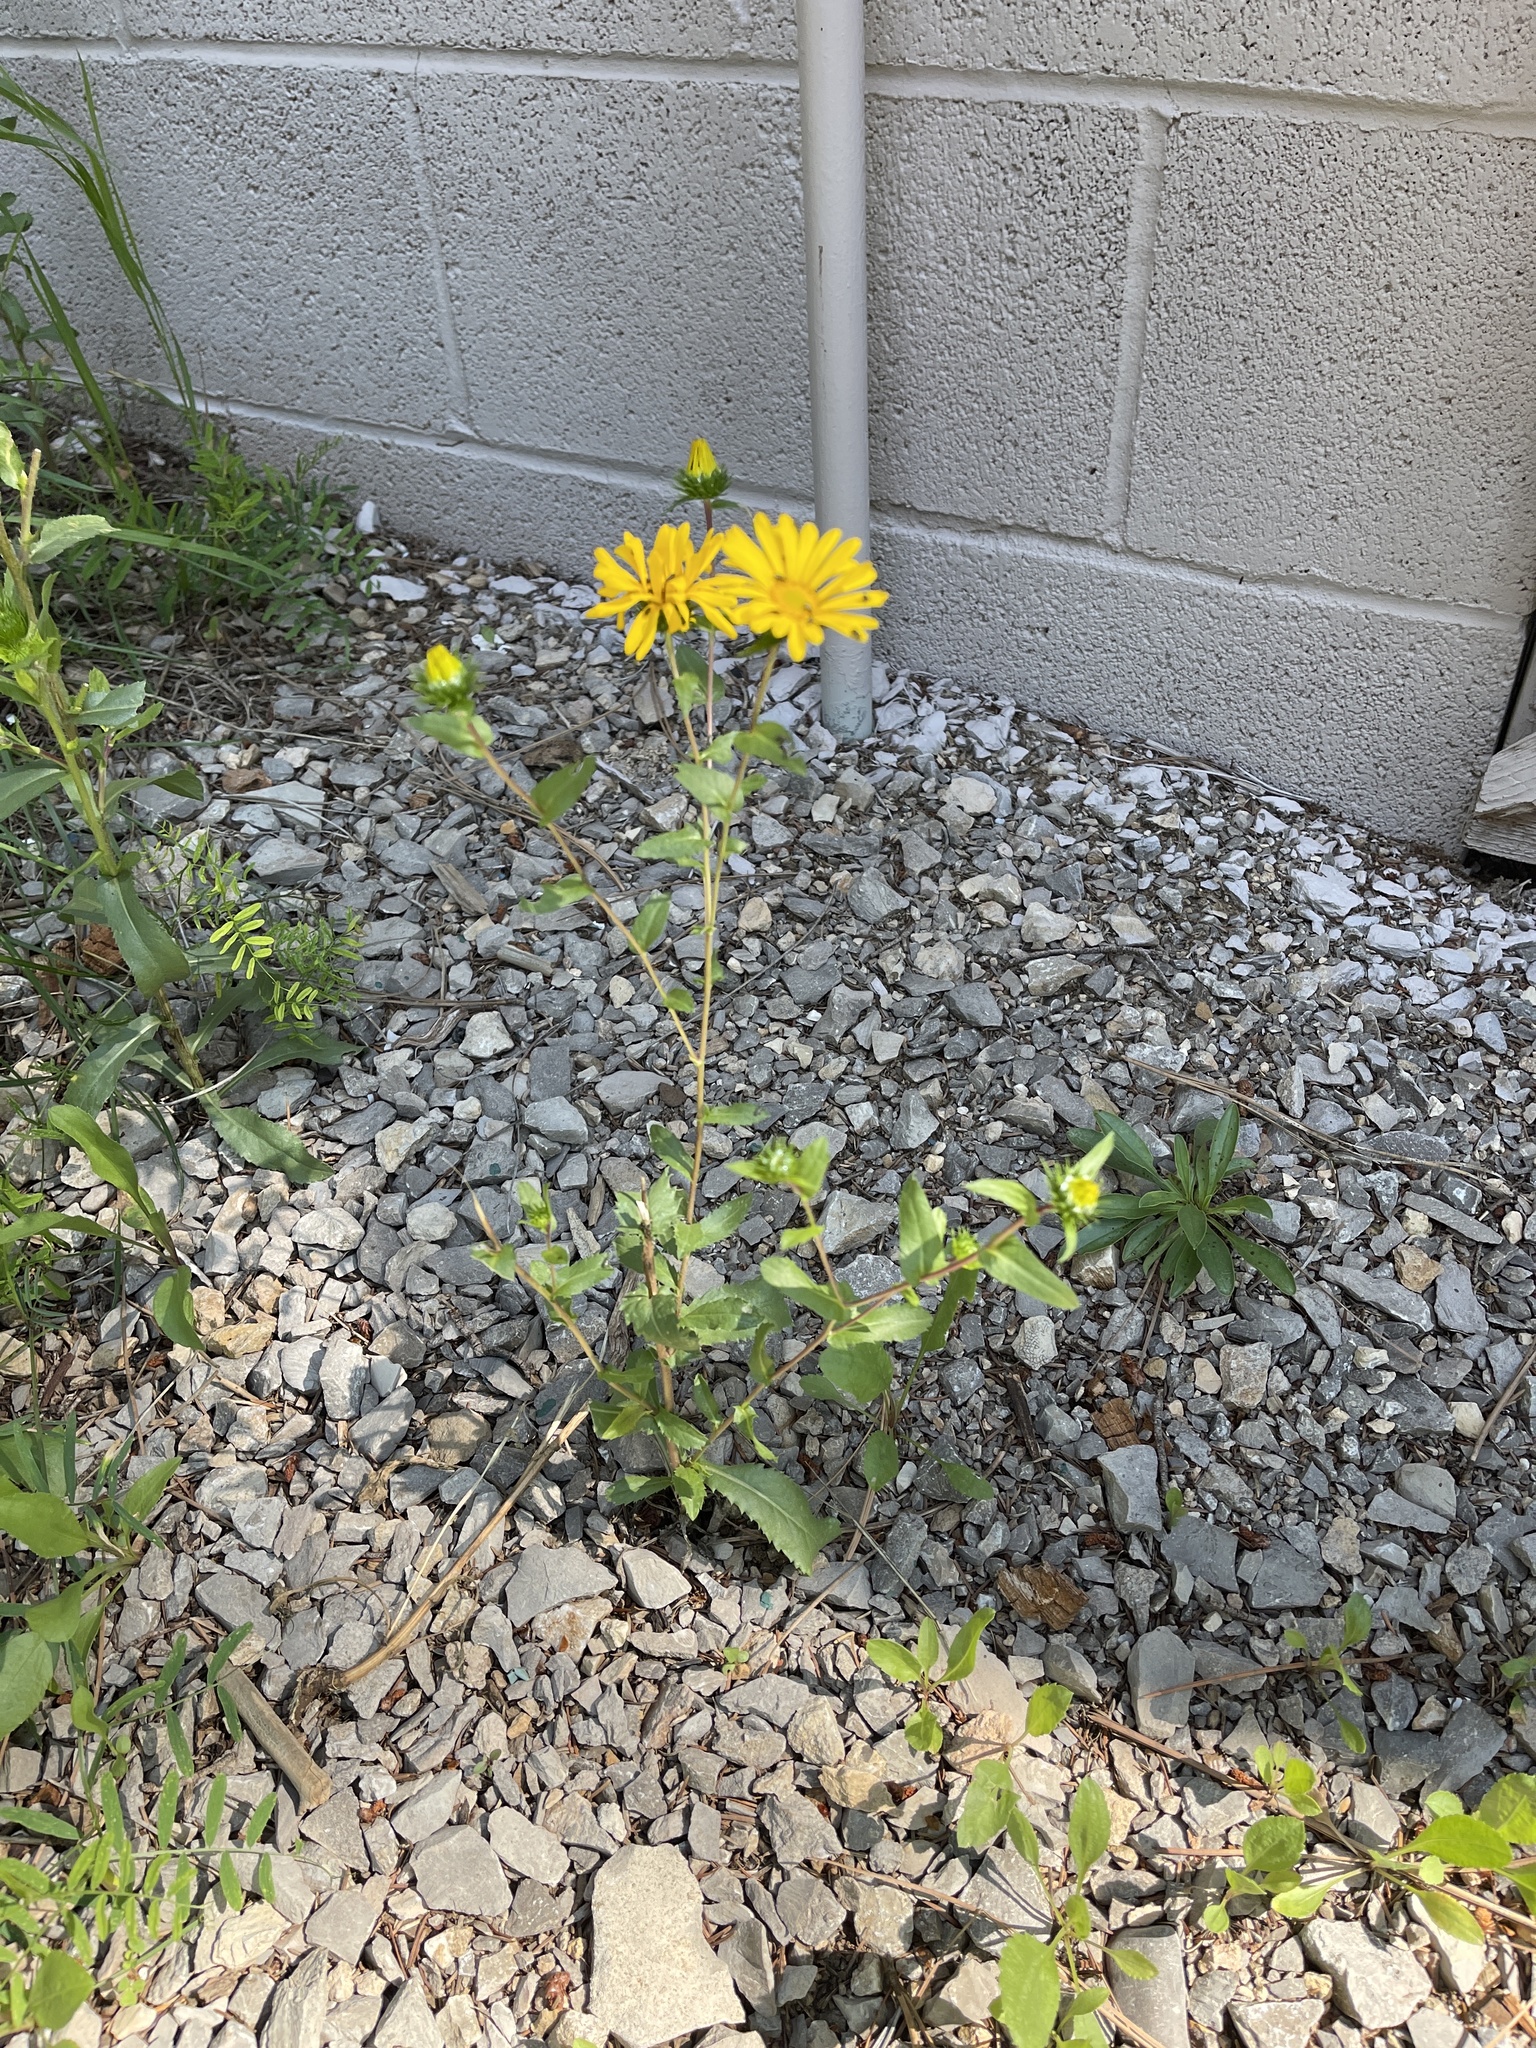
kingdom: Plantae
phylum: Tracheophyta
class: Magnoliopsida
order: Asterales
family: Asteraceae
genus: Grindelia
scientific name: Grindelia scabra
